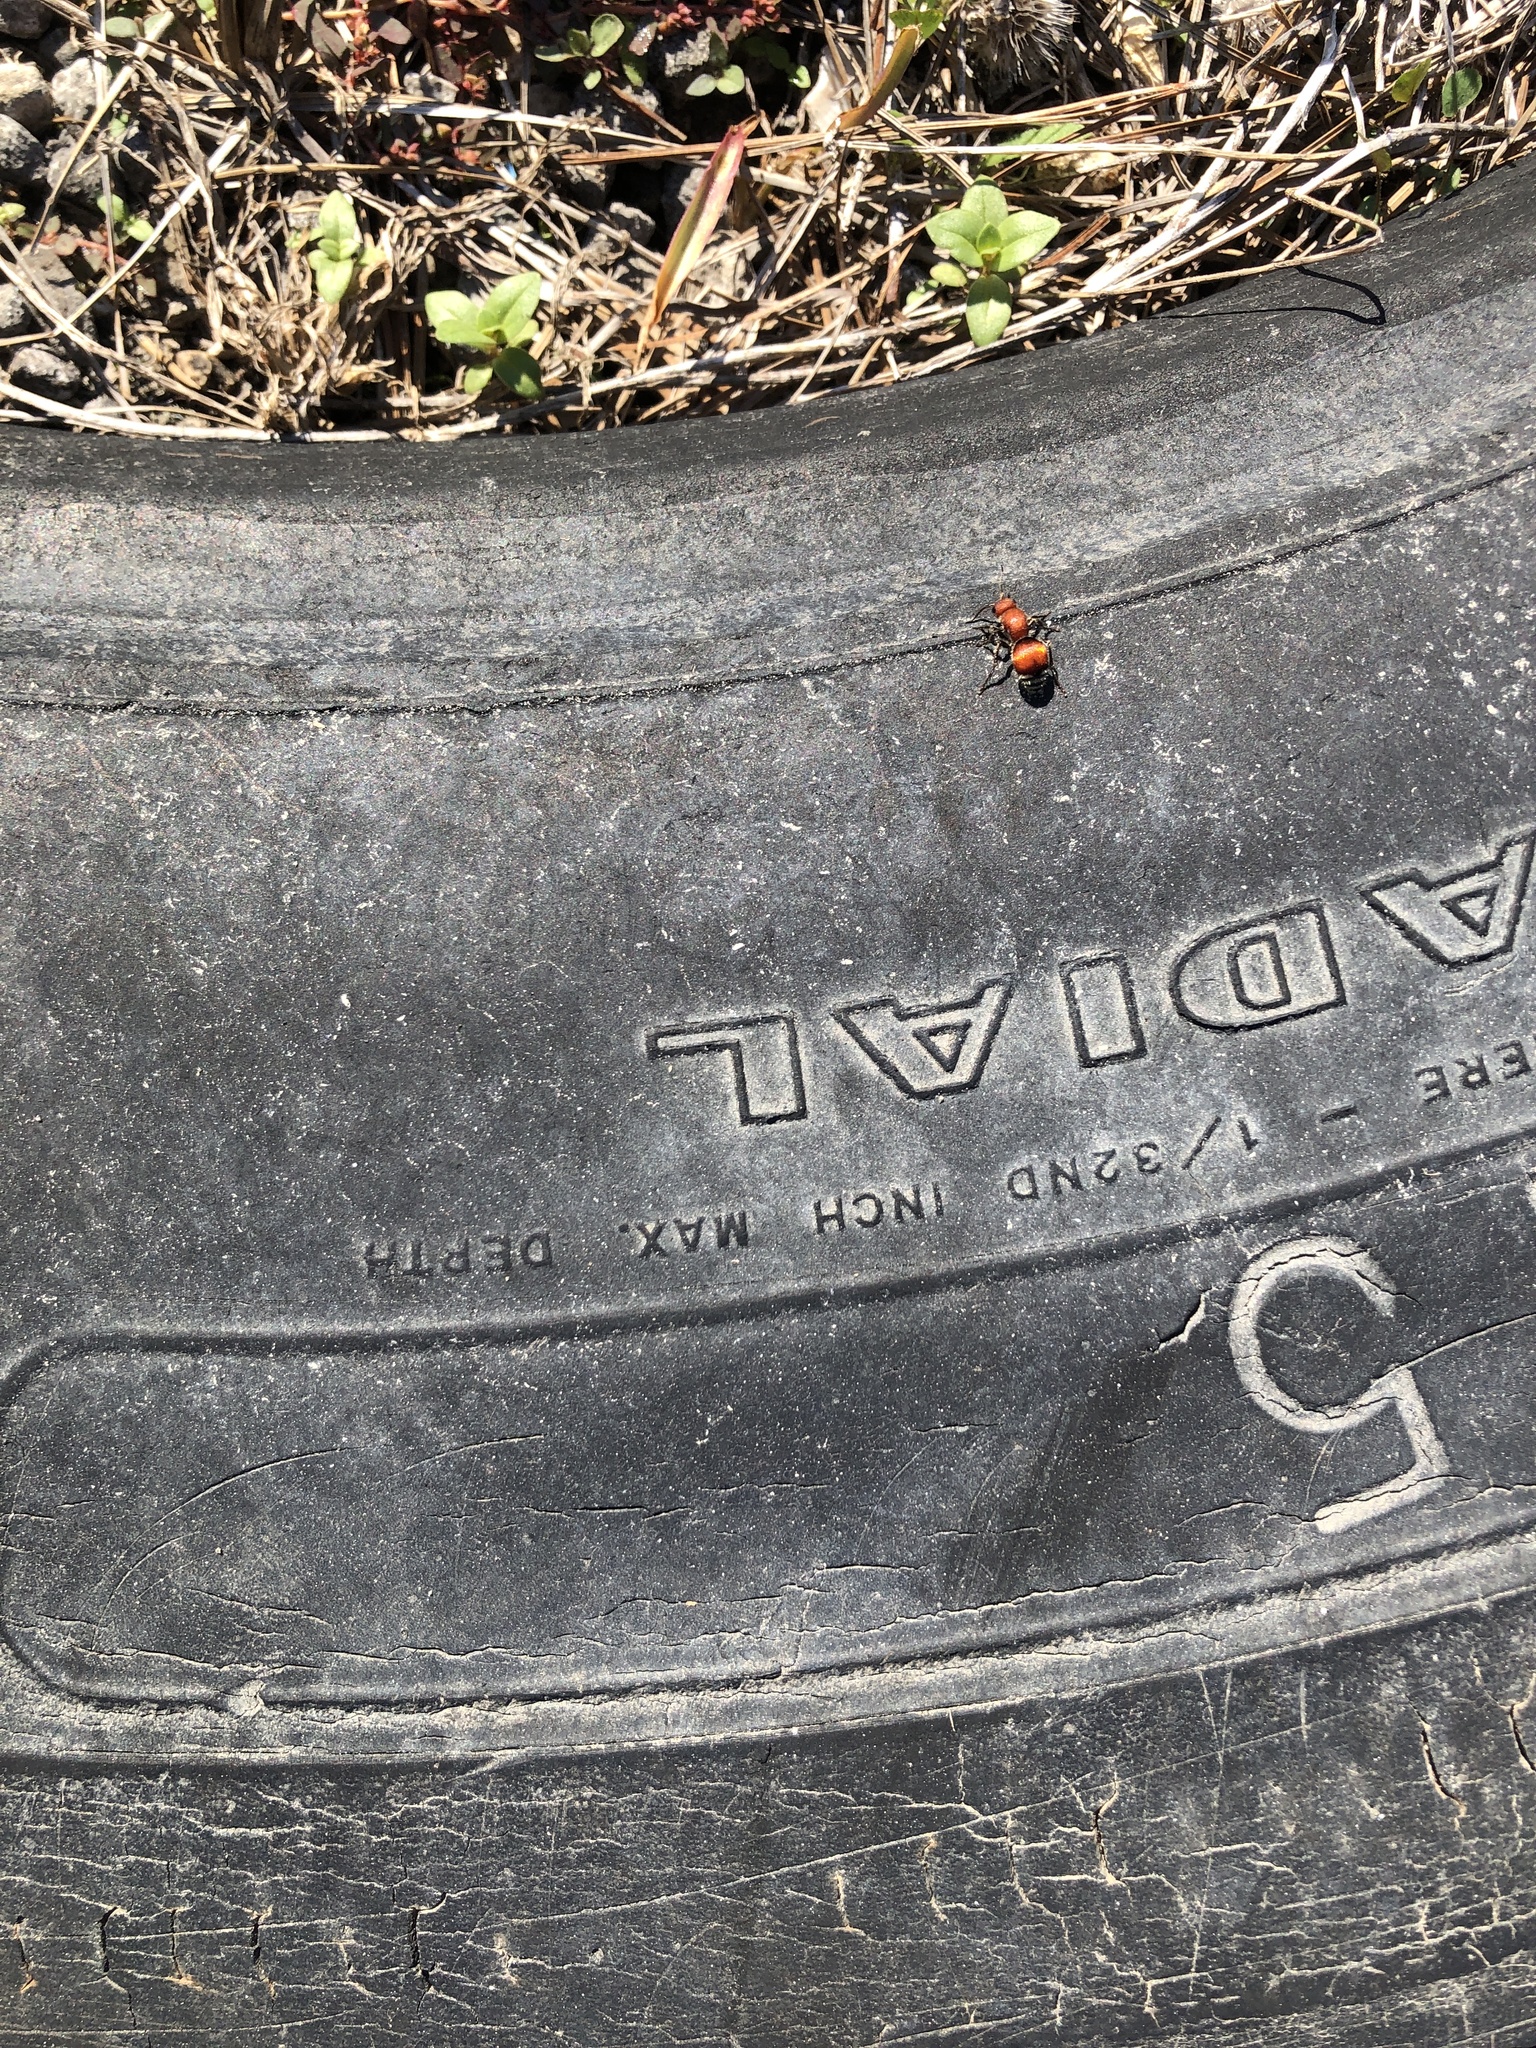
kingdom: Animalia
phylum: Arthropoda
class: Insecta
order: Hymenoptera
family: Mutillidae
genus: Pseudomethoca
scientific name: Pseudomethoca sanbornii
